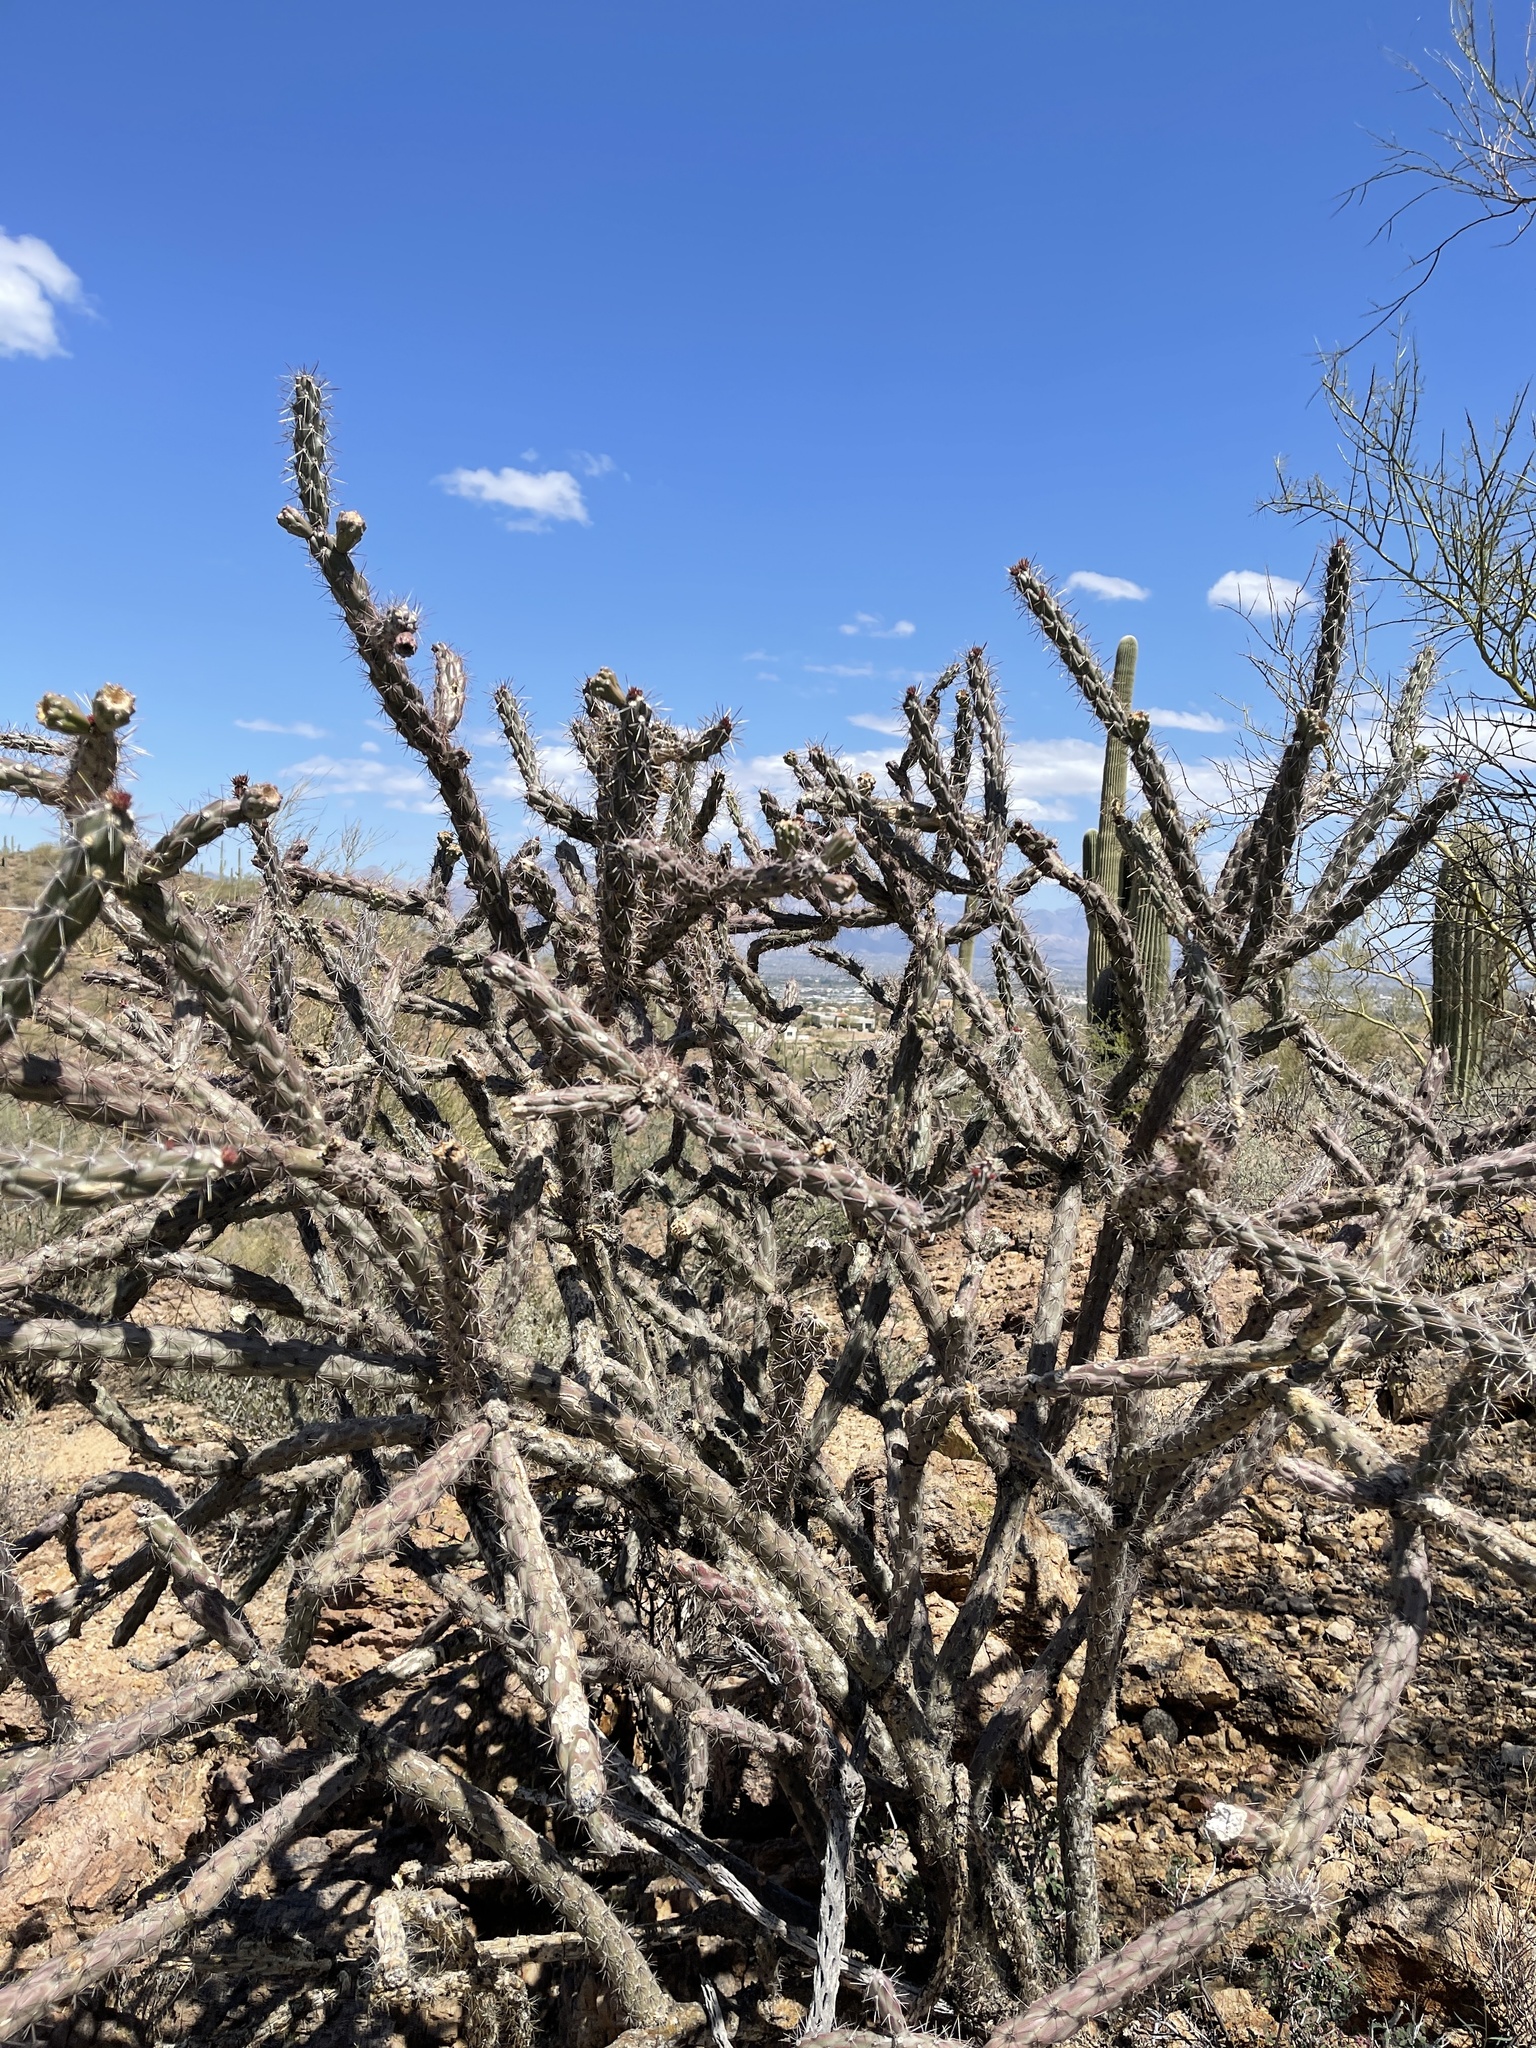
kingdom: Plantae
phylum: Tracheophyta
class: Magnoliopsida
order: Caryophyllales
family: Cactaceae
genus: Cylindropuntia
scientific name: Cylindropuntia thurberi
